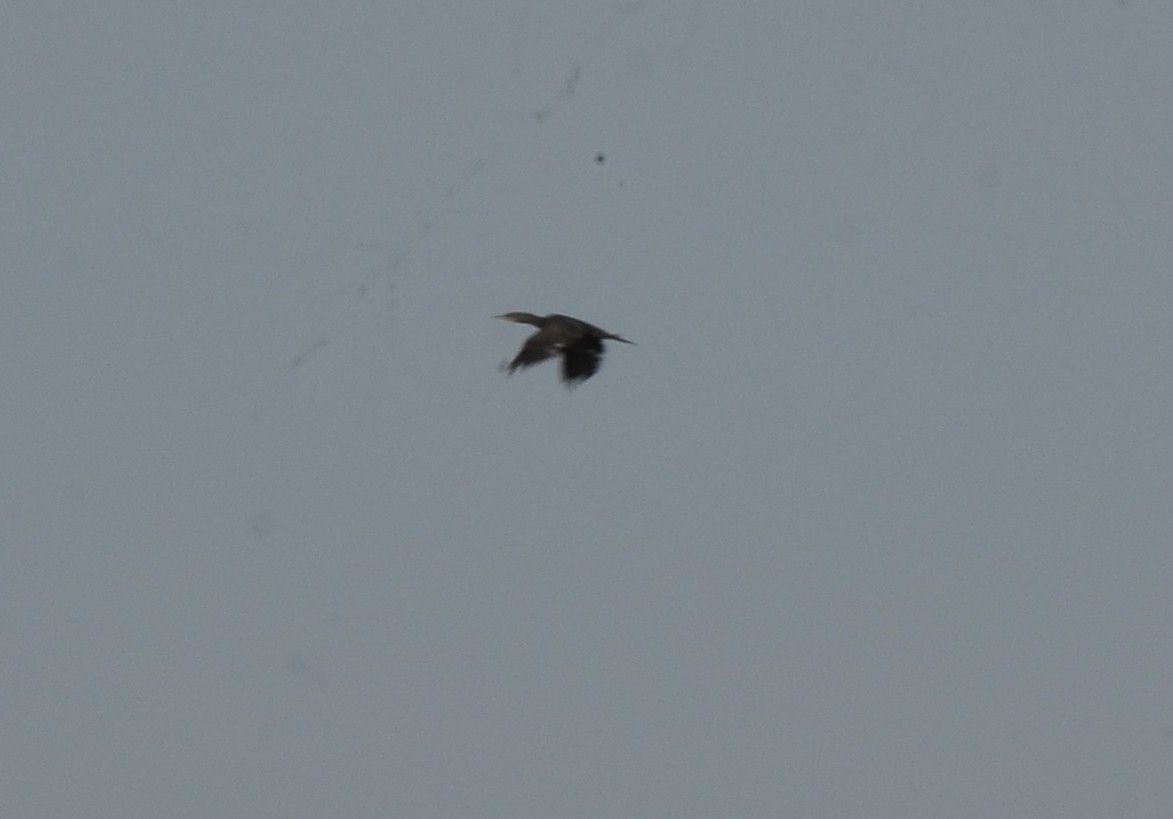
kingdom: Animalia
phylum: Chordata
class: Aves
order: Suliformes
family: Phalacrocoracidae
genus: Microcarbo
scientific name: Microcarbo niger
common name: Little cormorant
